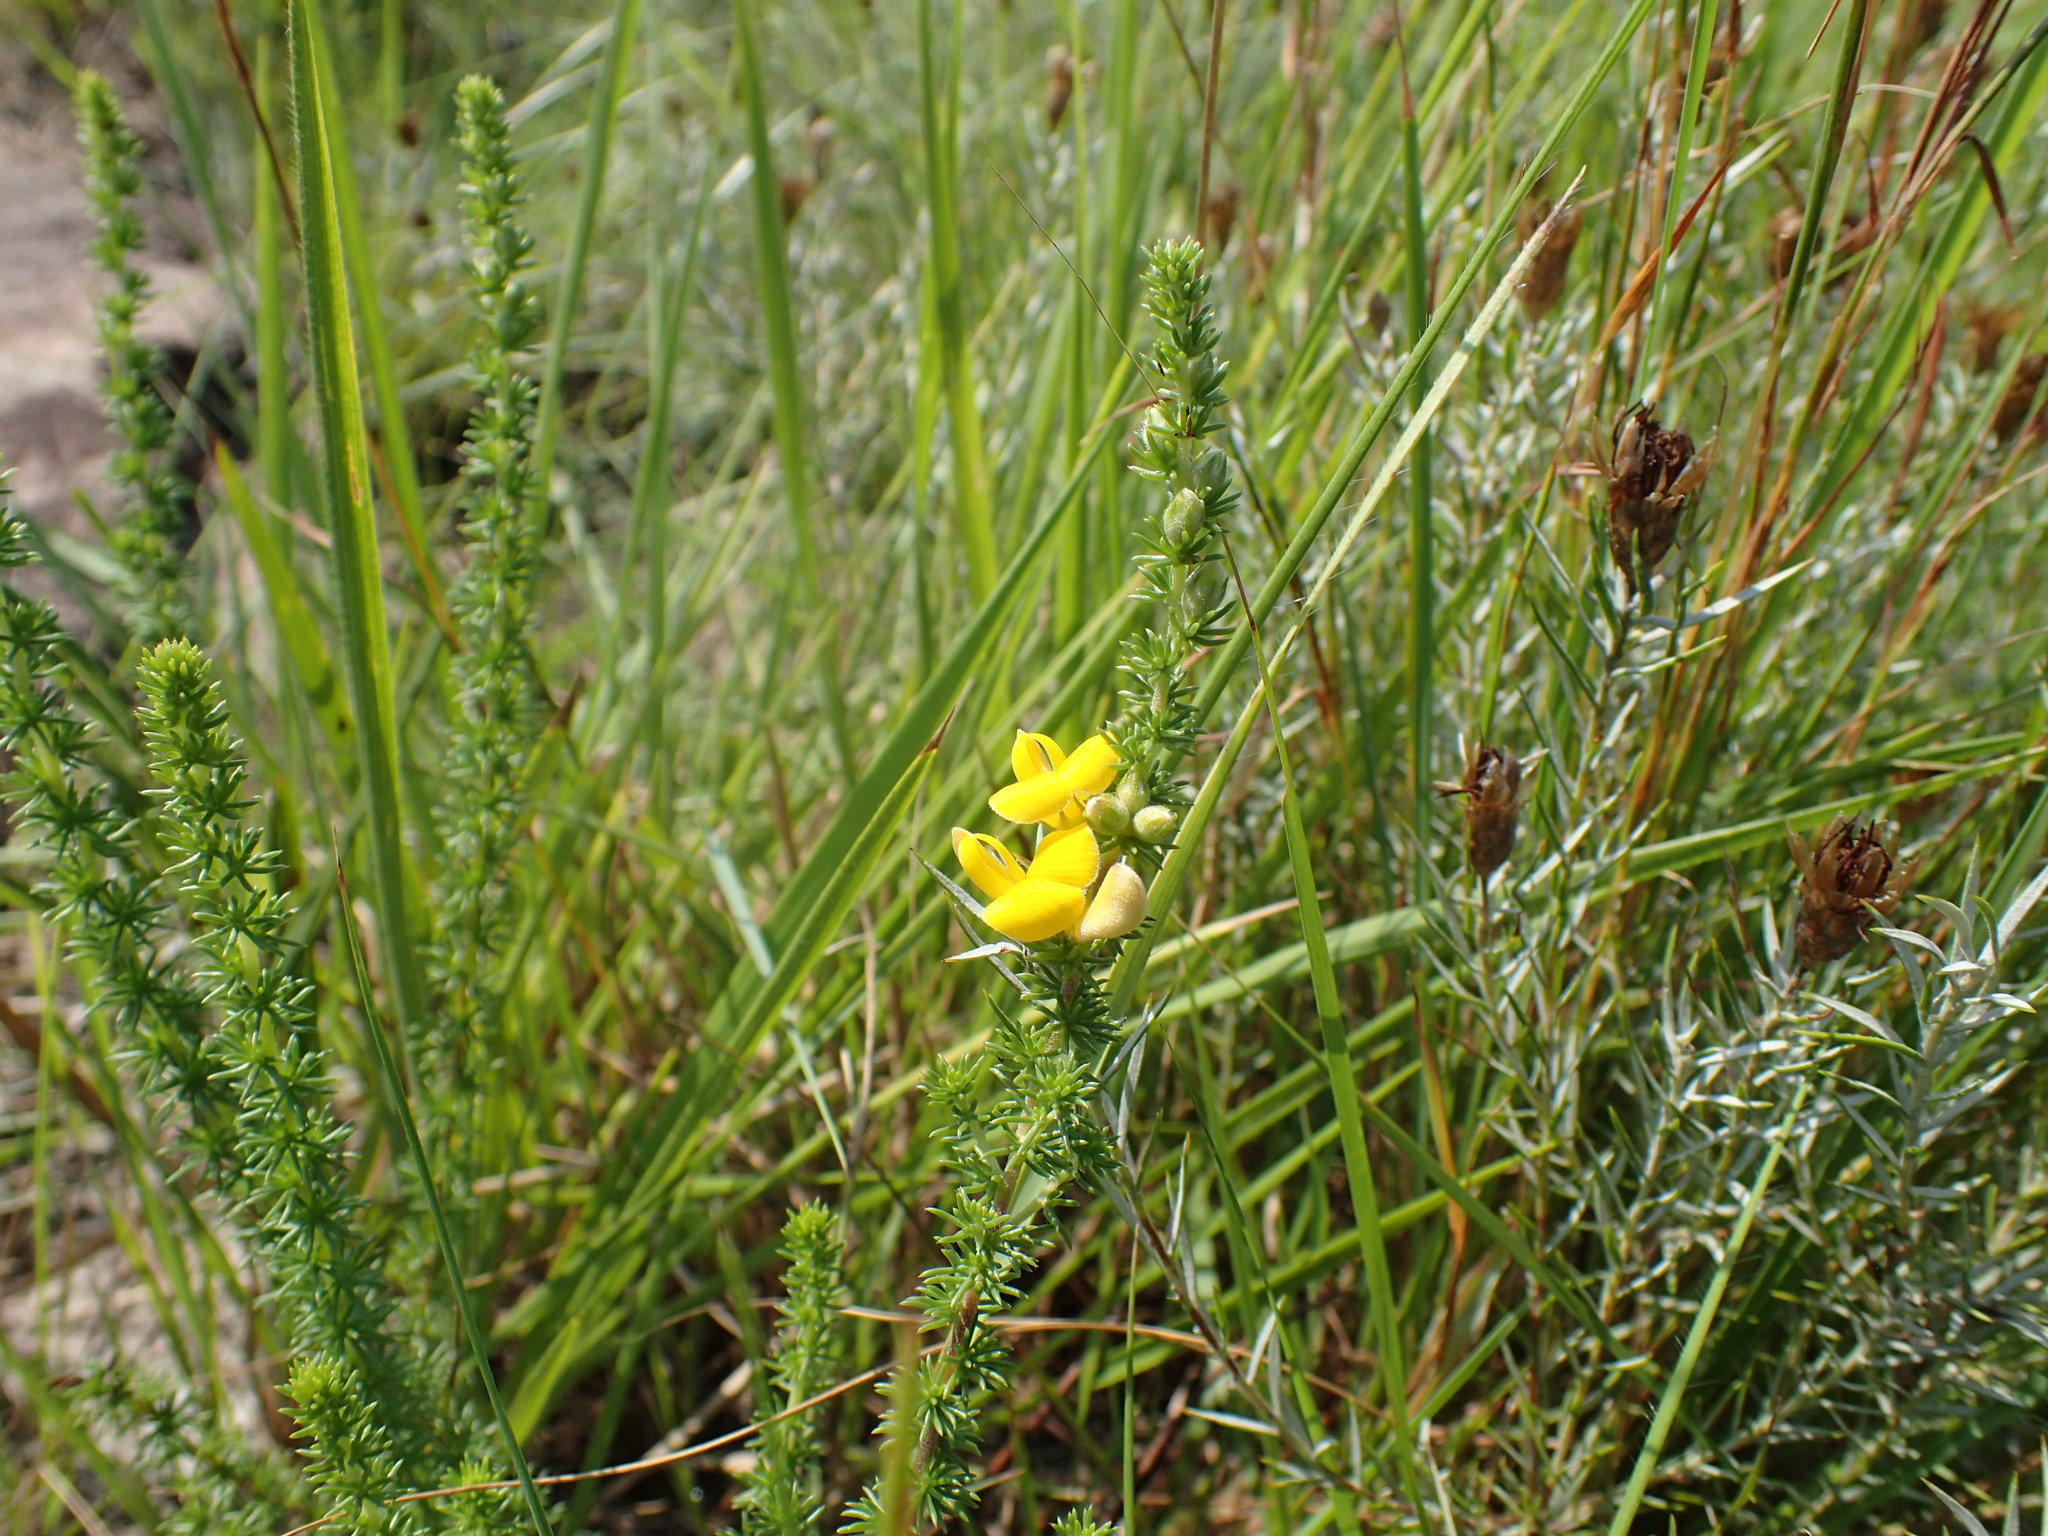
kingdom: Plantae
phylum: Tracheophyta
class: Magnoliopsida
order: Fabales
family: Fabaceae
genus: Aspalathus
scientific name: Aspalathus chortophila
